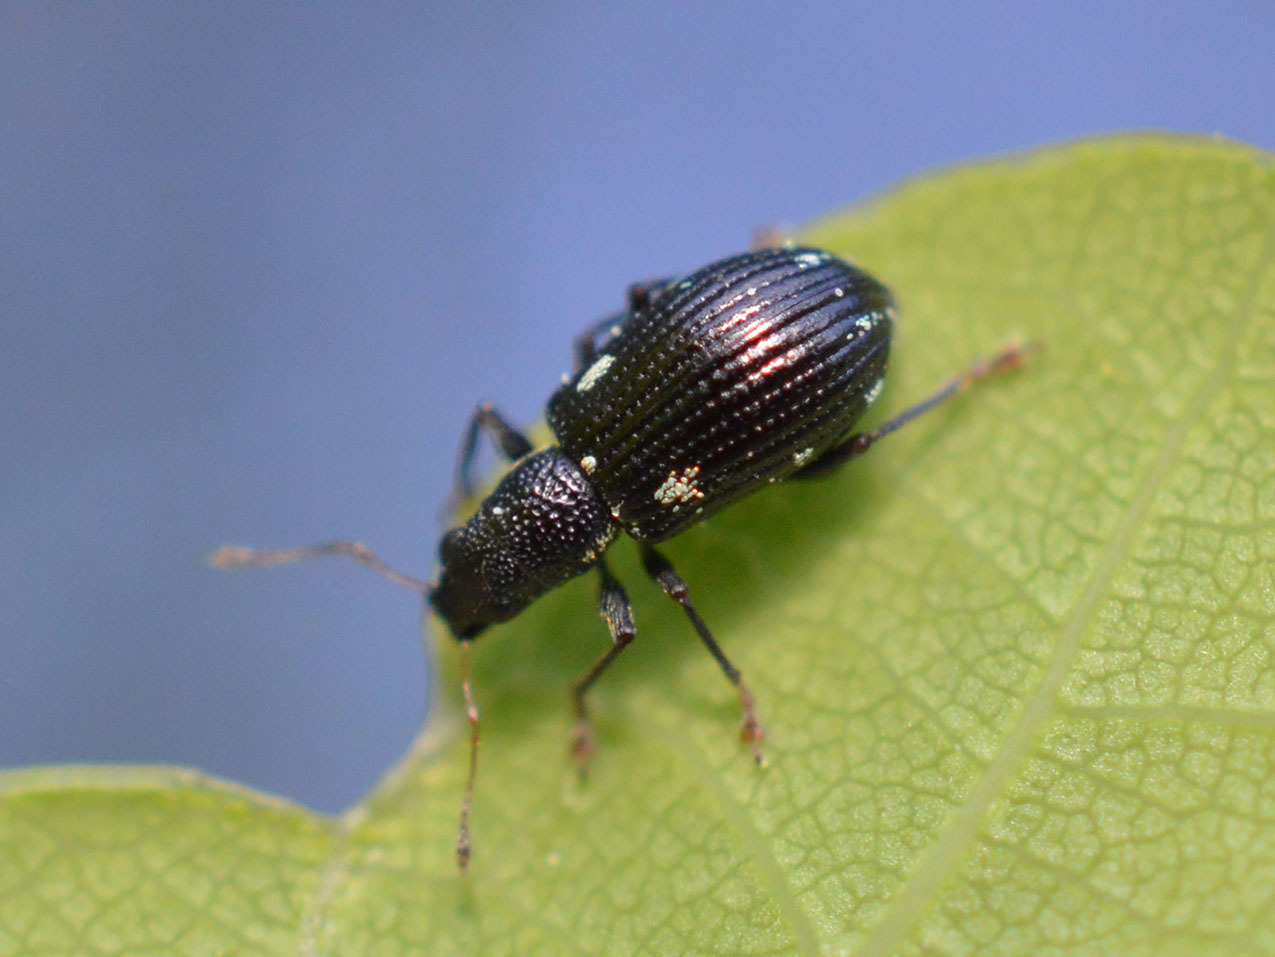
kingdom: Animalia
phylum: Arthropoda
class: Insecta
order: Coleoptera
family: Curculionidae
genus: Polydrusus
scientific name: Polydrusus picus
